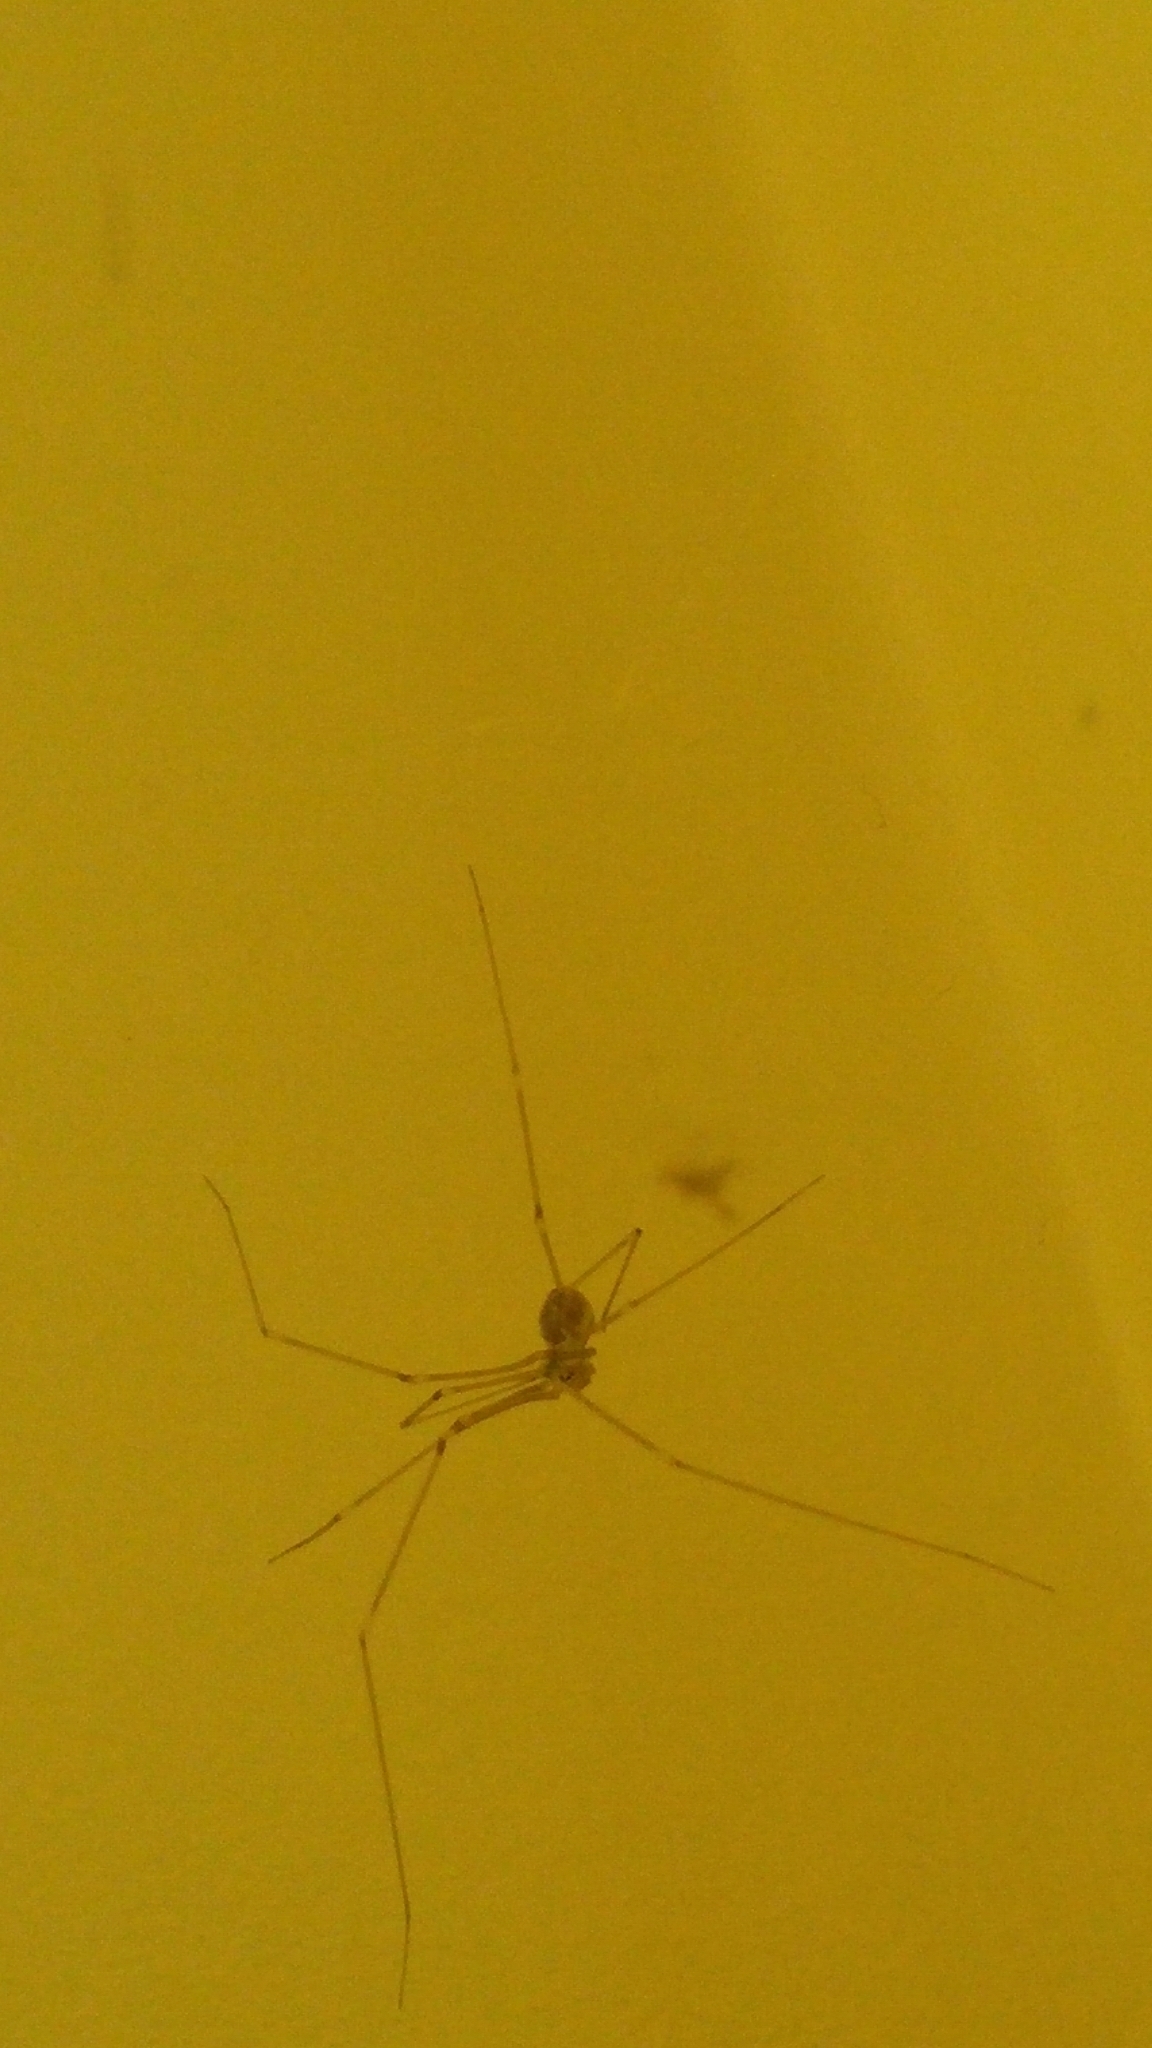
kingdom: Animalia
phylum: Arthropoda
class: Arachnida
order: Araneae
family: Pholcidae
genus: Pholcus
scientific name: Pholcus phalangioides
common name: Longbodied cellar spider
